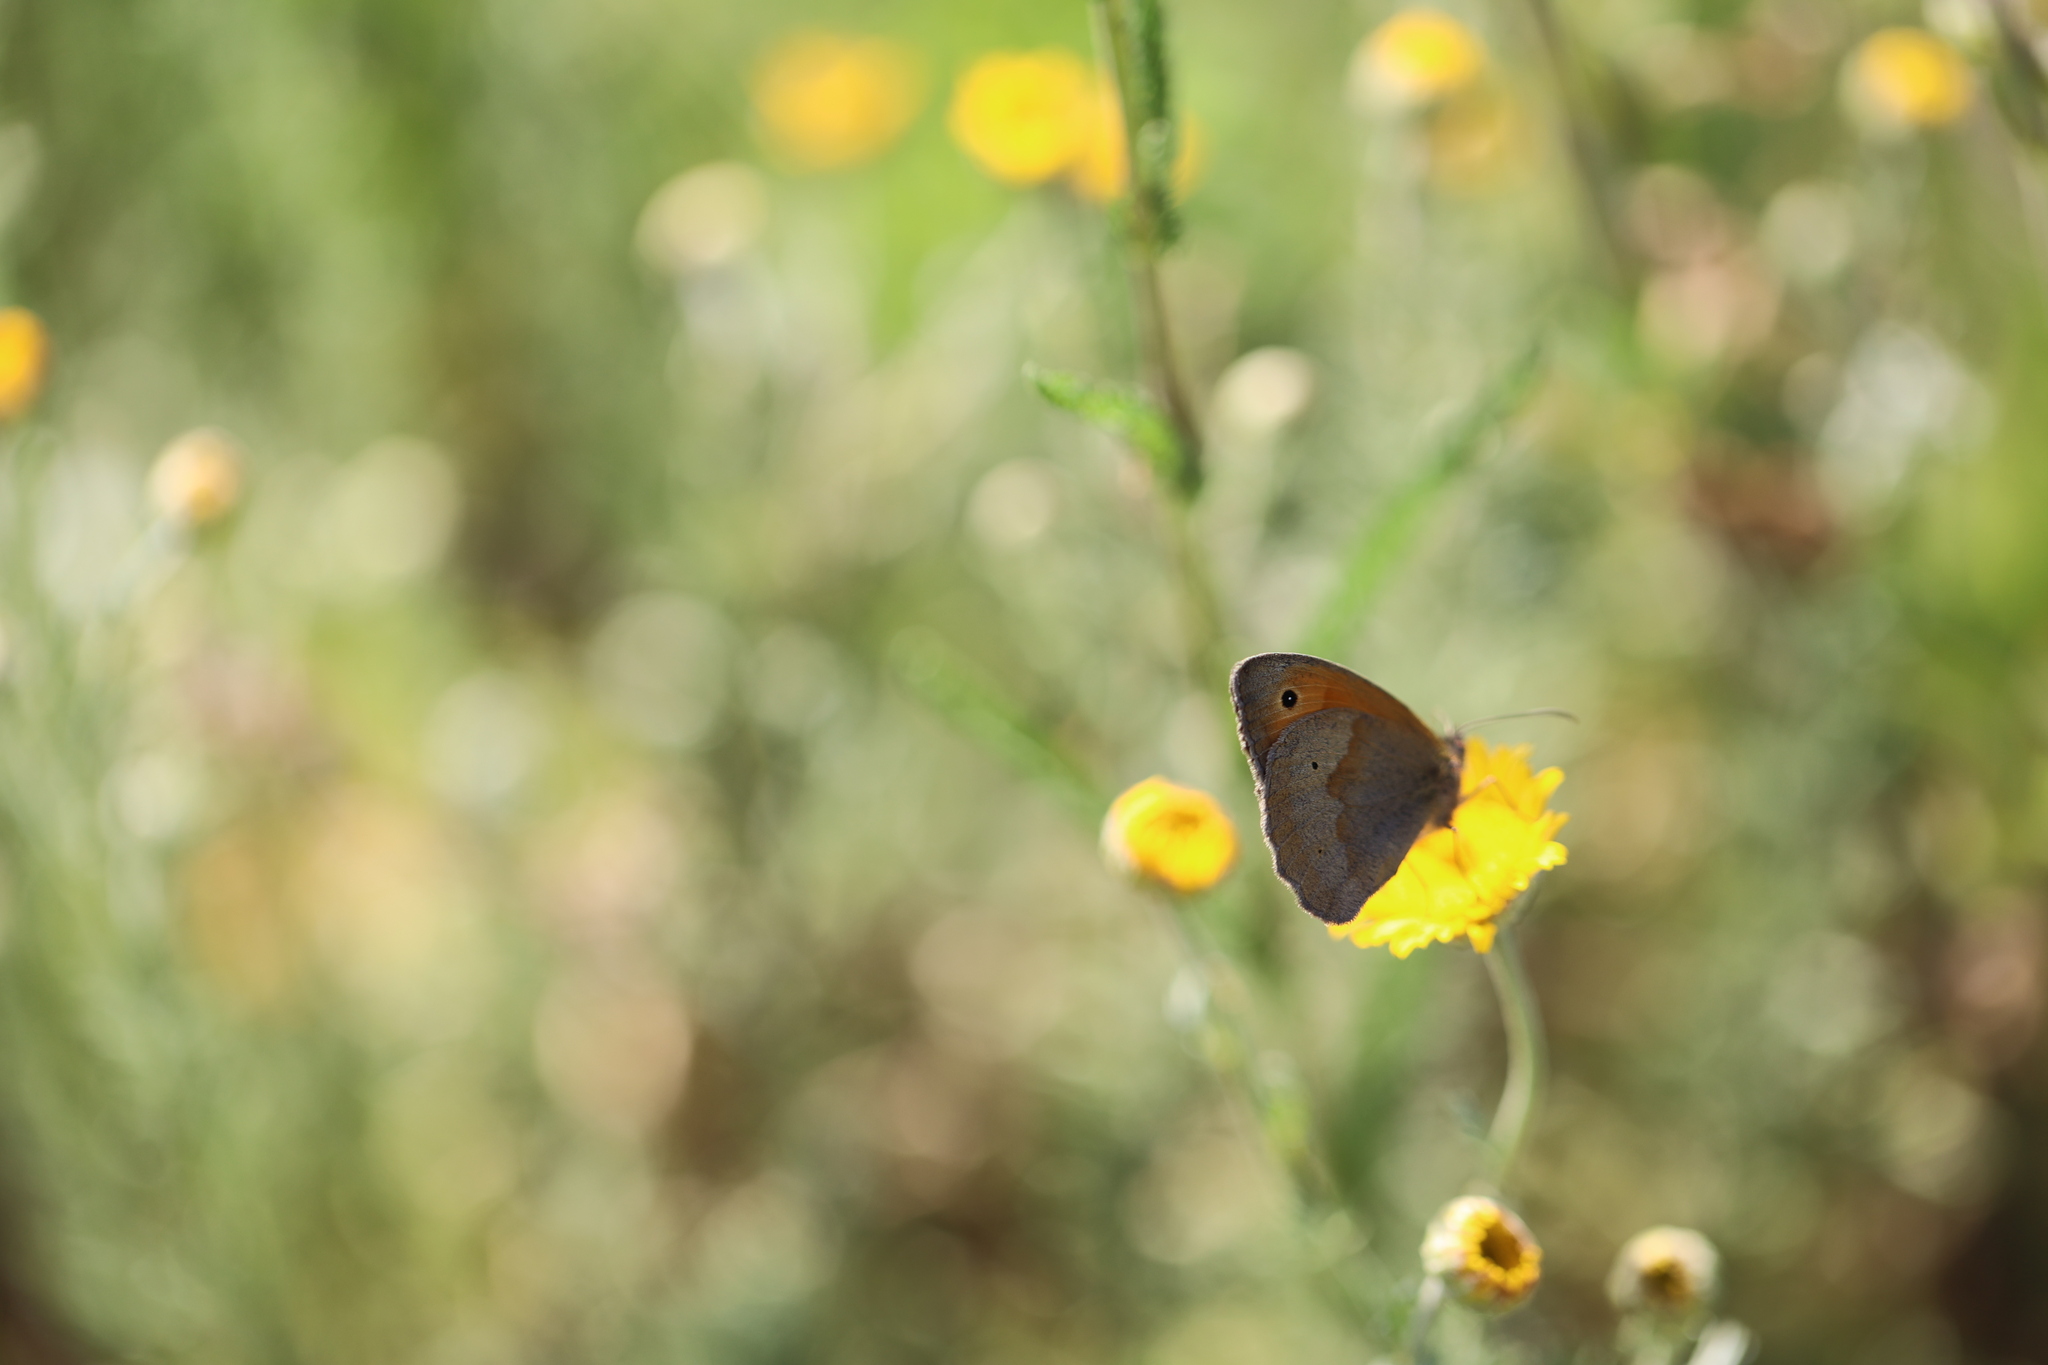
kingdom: Animalia
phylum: Arthropoda
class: Insecta
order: Lepidoptera
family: Nymphalidae
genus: Maniola
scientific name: Maniola jurtina
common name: Meadow brown
